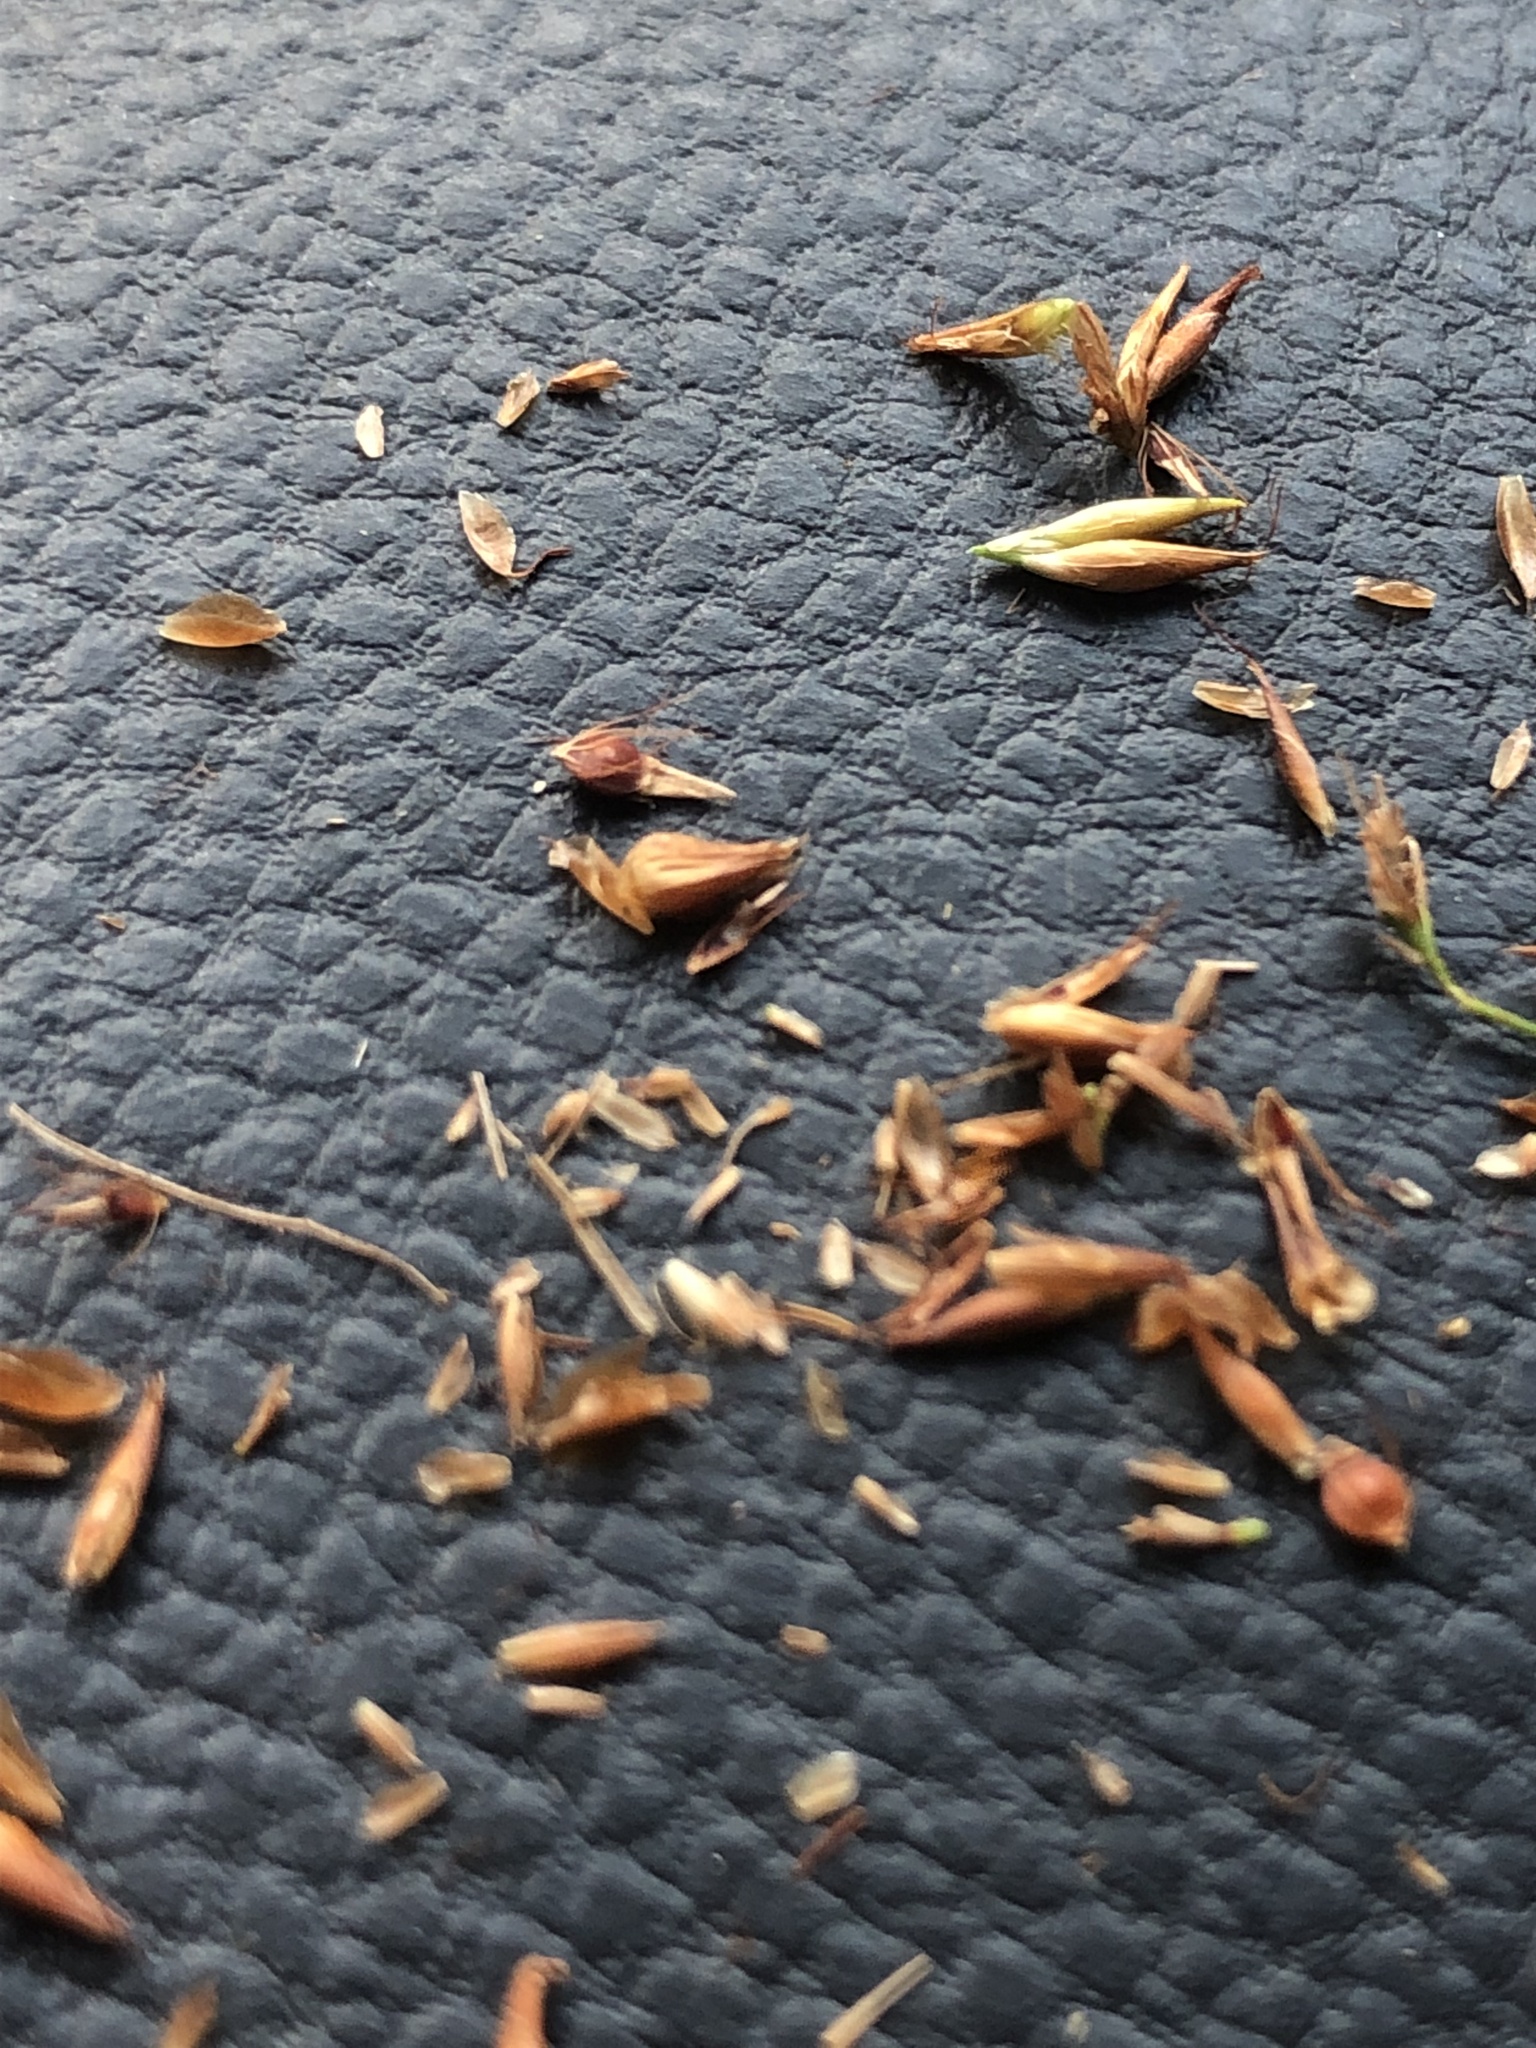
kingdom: Plantae
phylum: Tracheophyta
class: Liliopsida
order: Poales
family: Cyperaceae
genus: Rhynchospora
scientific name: Rhynchospora gracilenta
